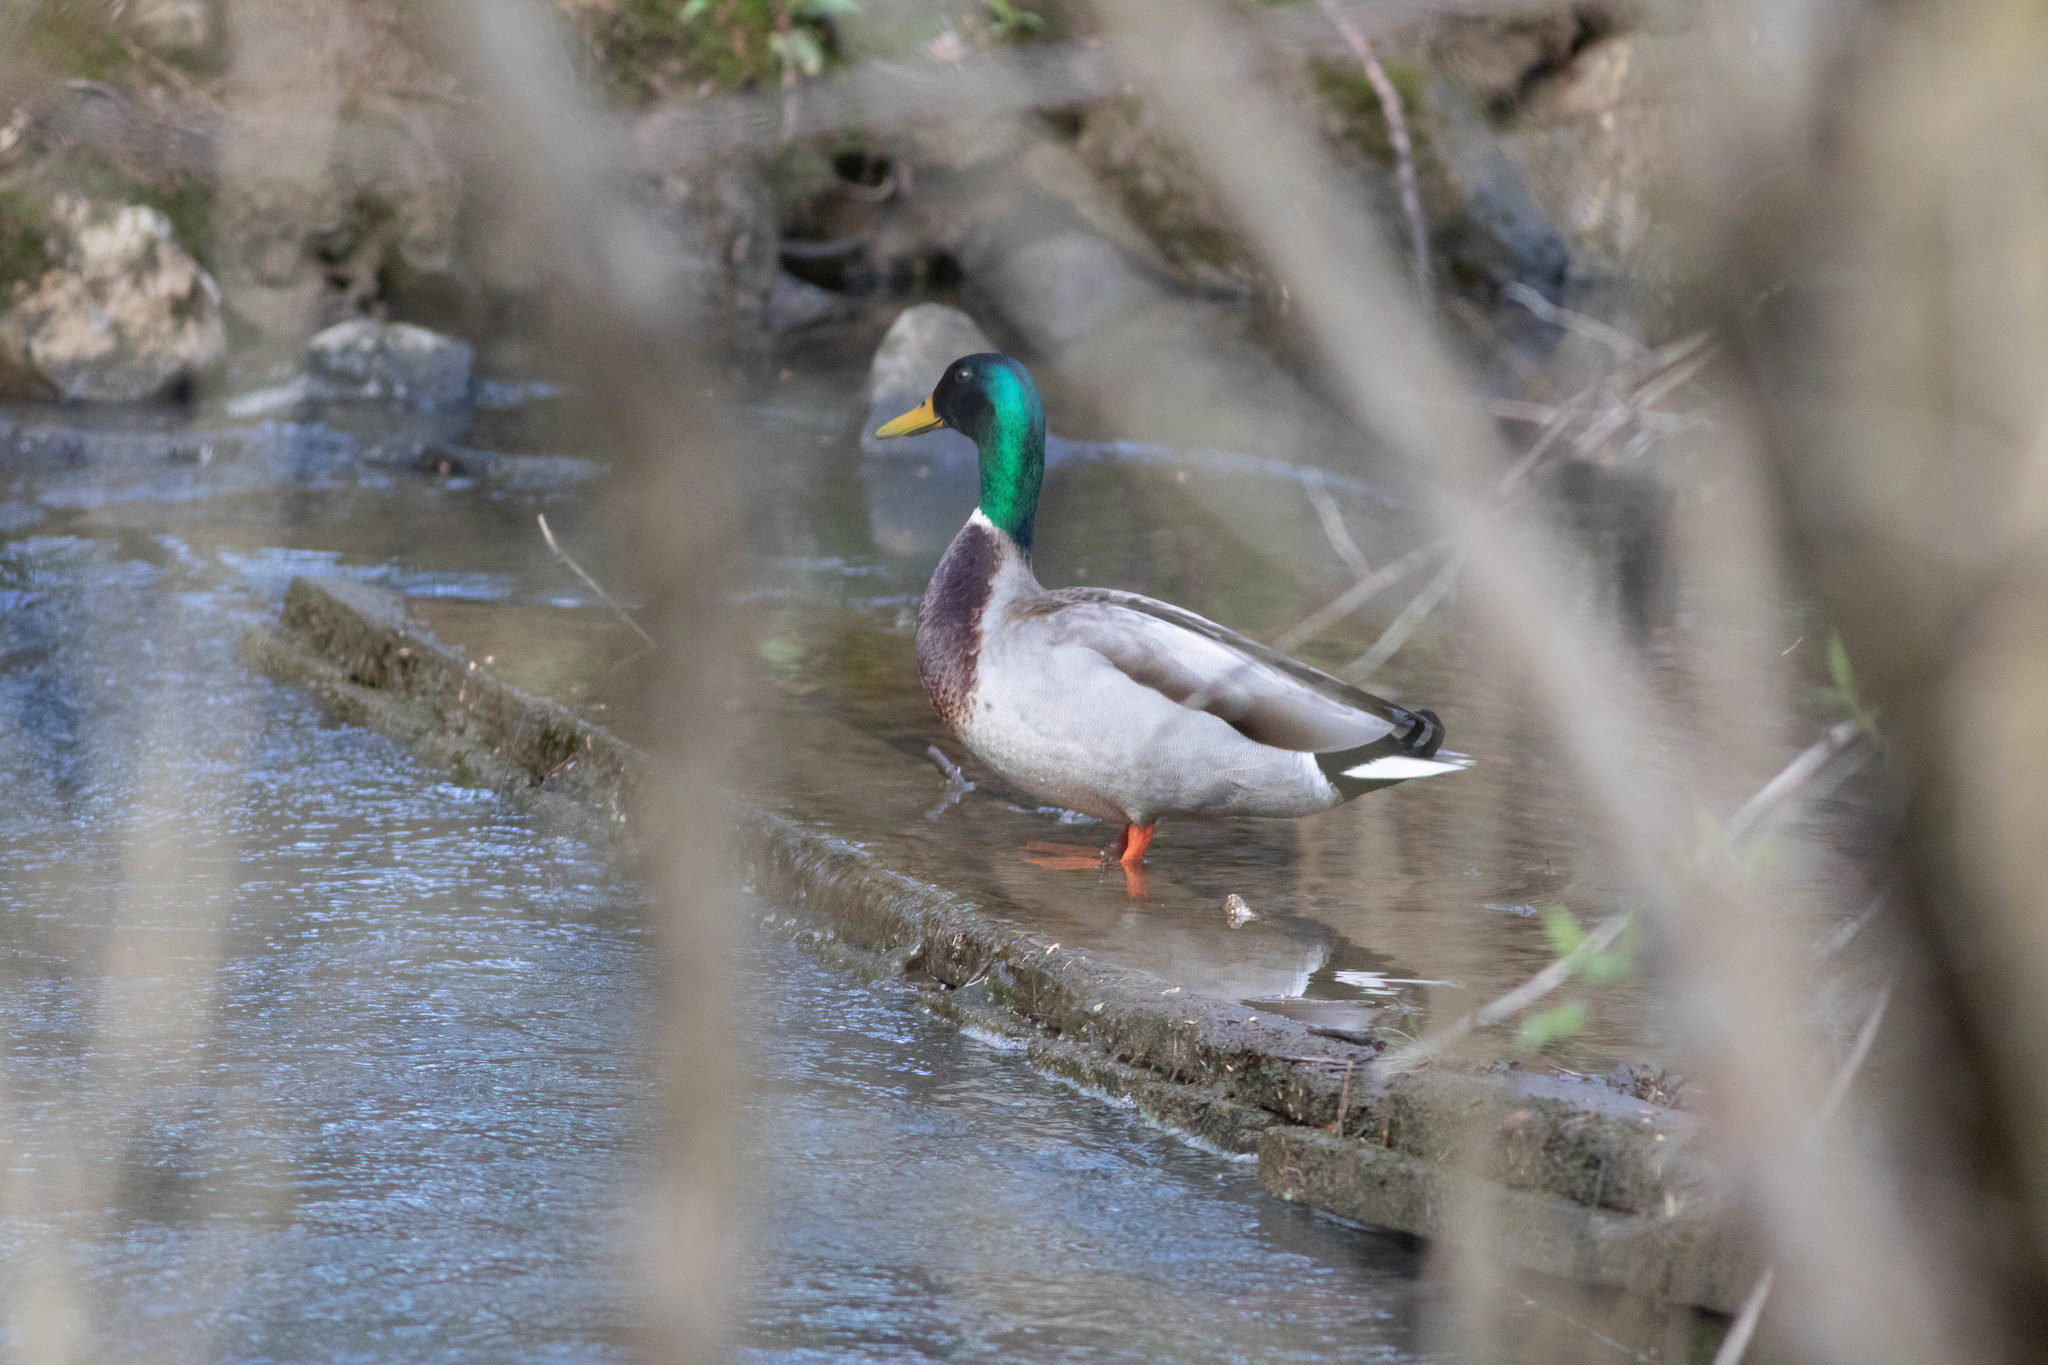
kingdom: Animalia
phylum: Chordata
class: Aves
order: Anseriformes
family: Anatidae
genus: Anas
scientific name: Anas platyrhynchos
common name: Mallard
